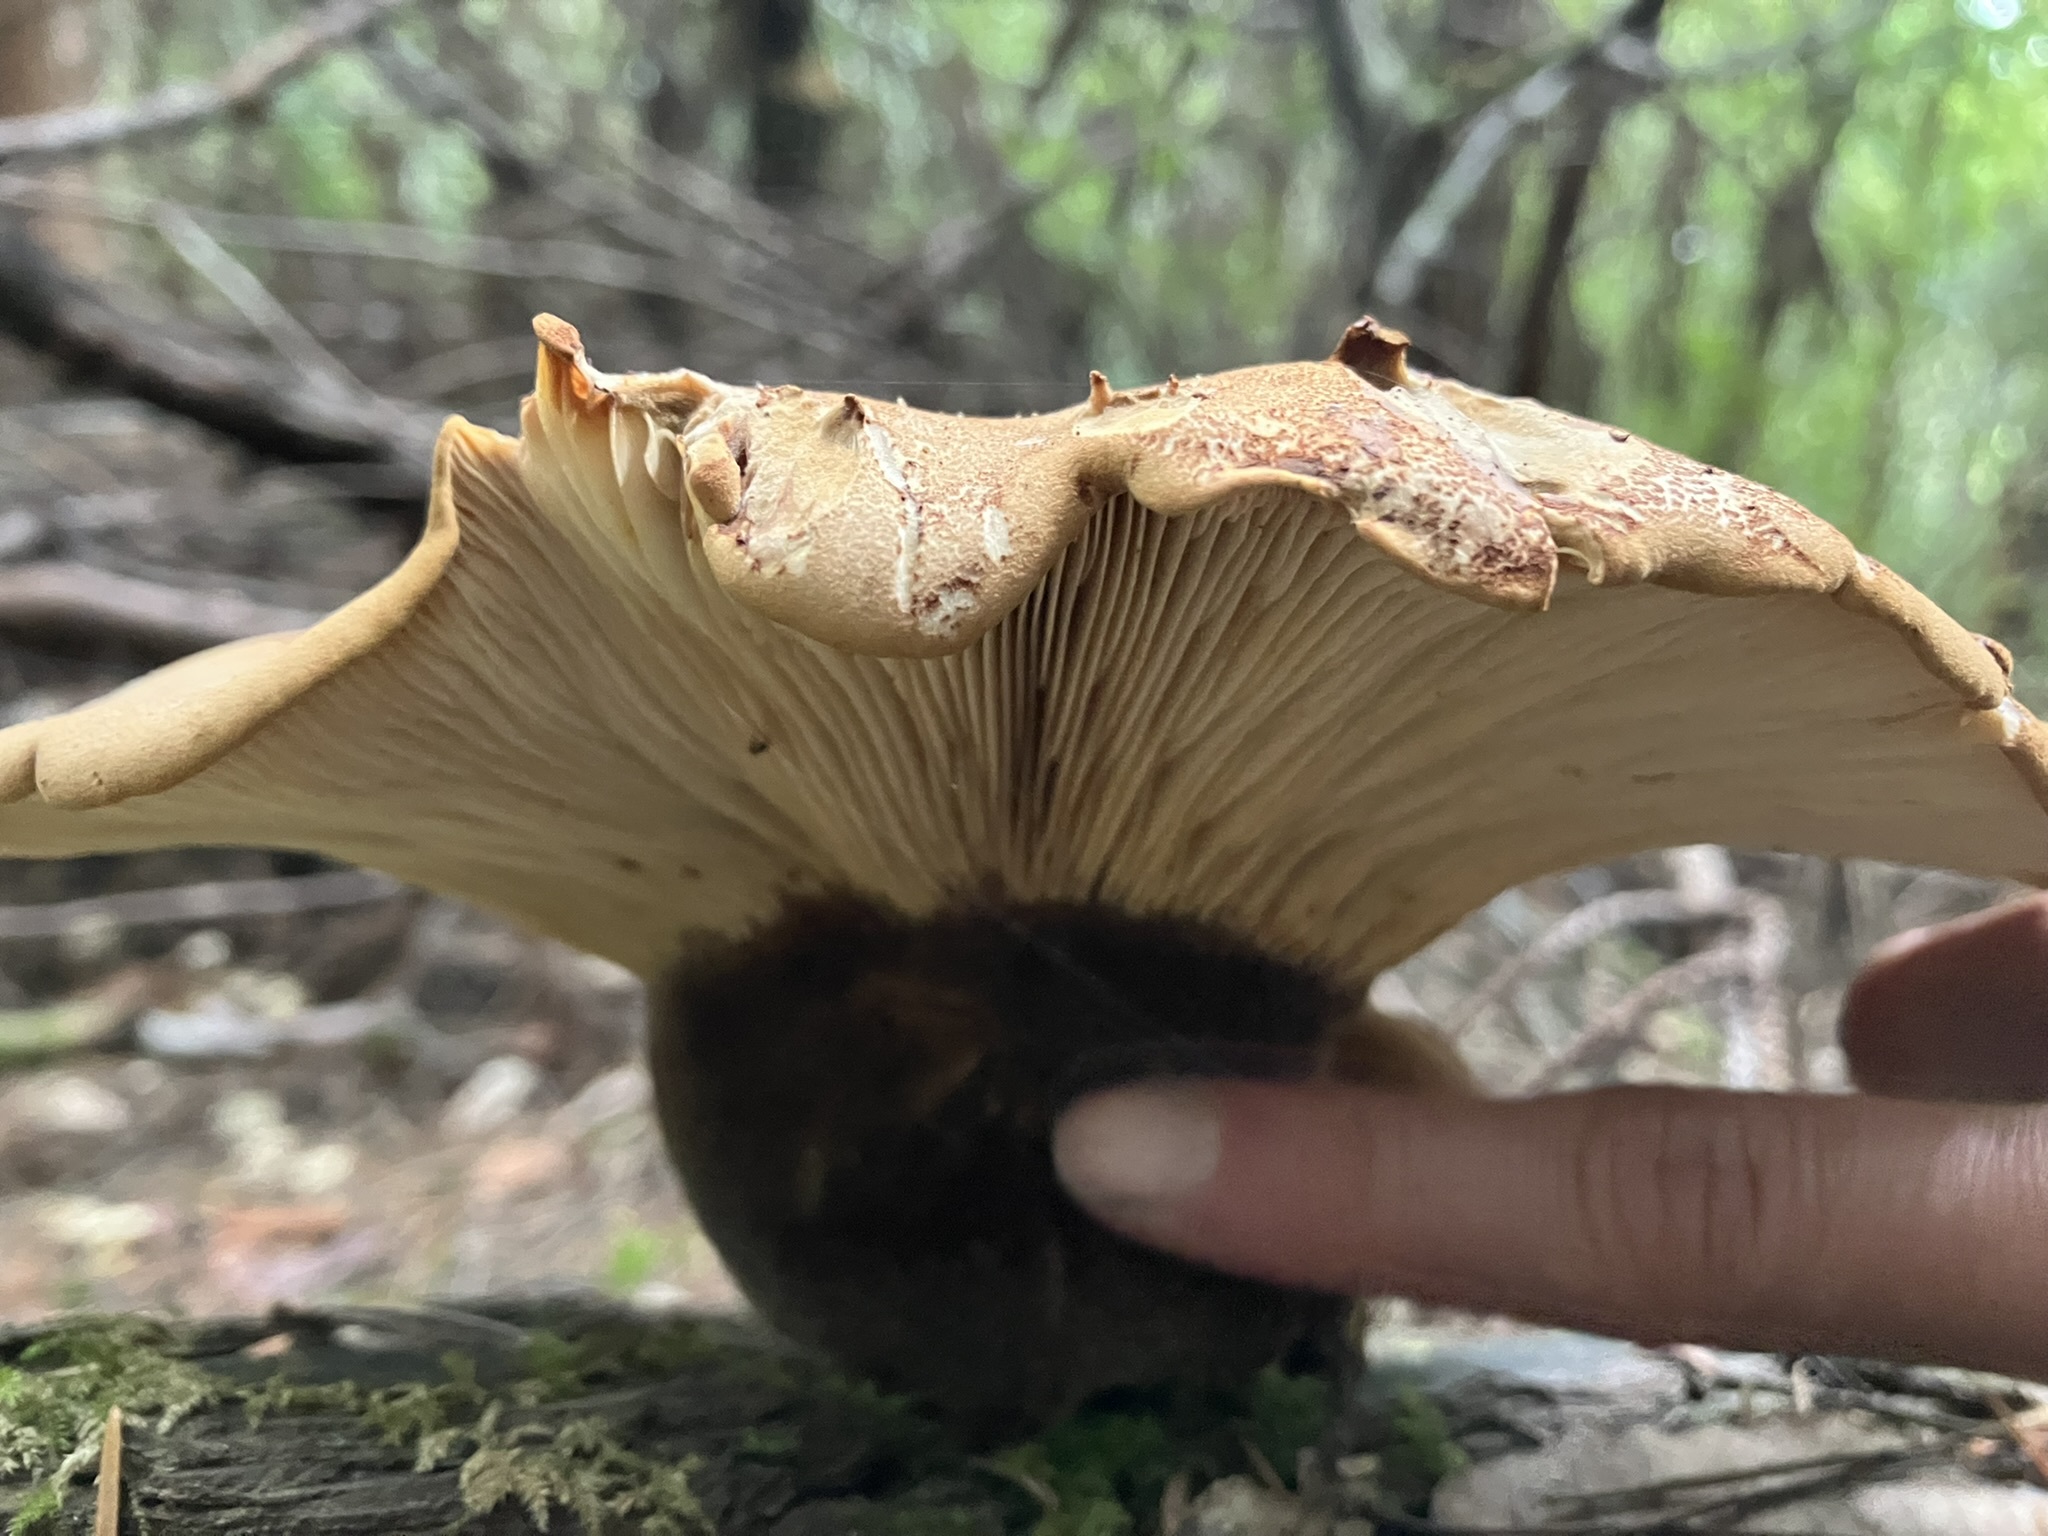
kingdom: Fungi
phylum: Basidiomycota
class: Agaricomycetes
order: Boletales
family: Tapinellaceae
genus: Tapinella
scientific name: Tapinella atrotomentosa
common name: Velvet rollrim
